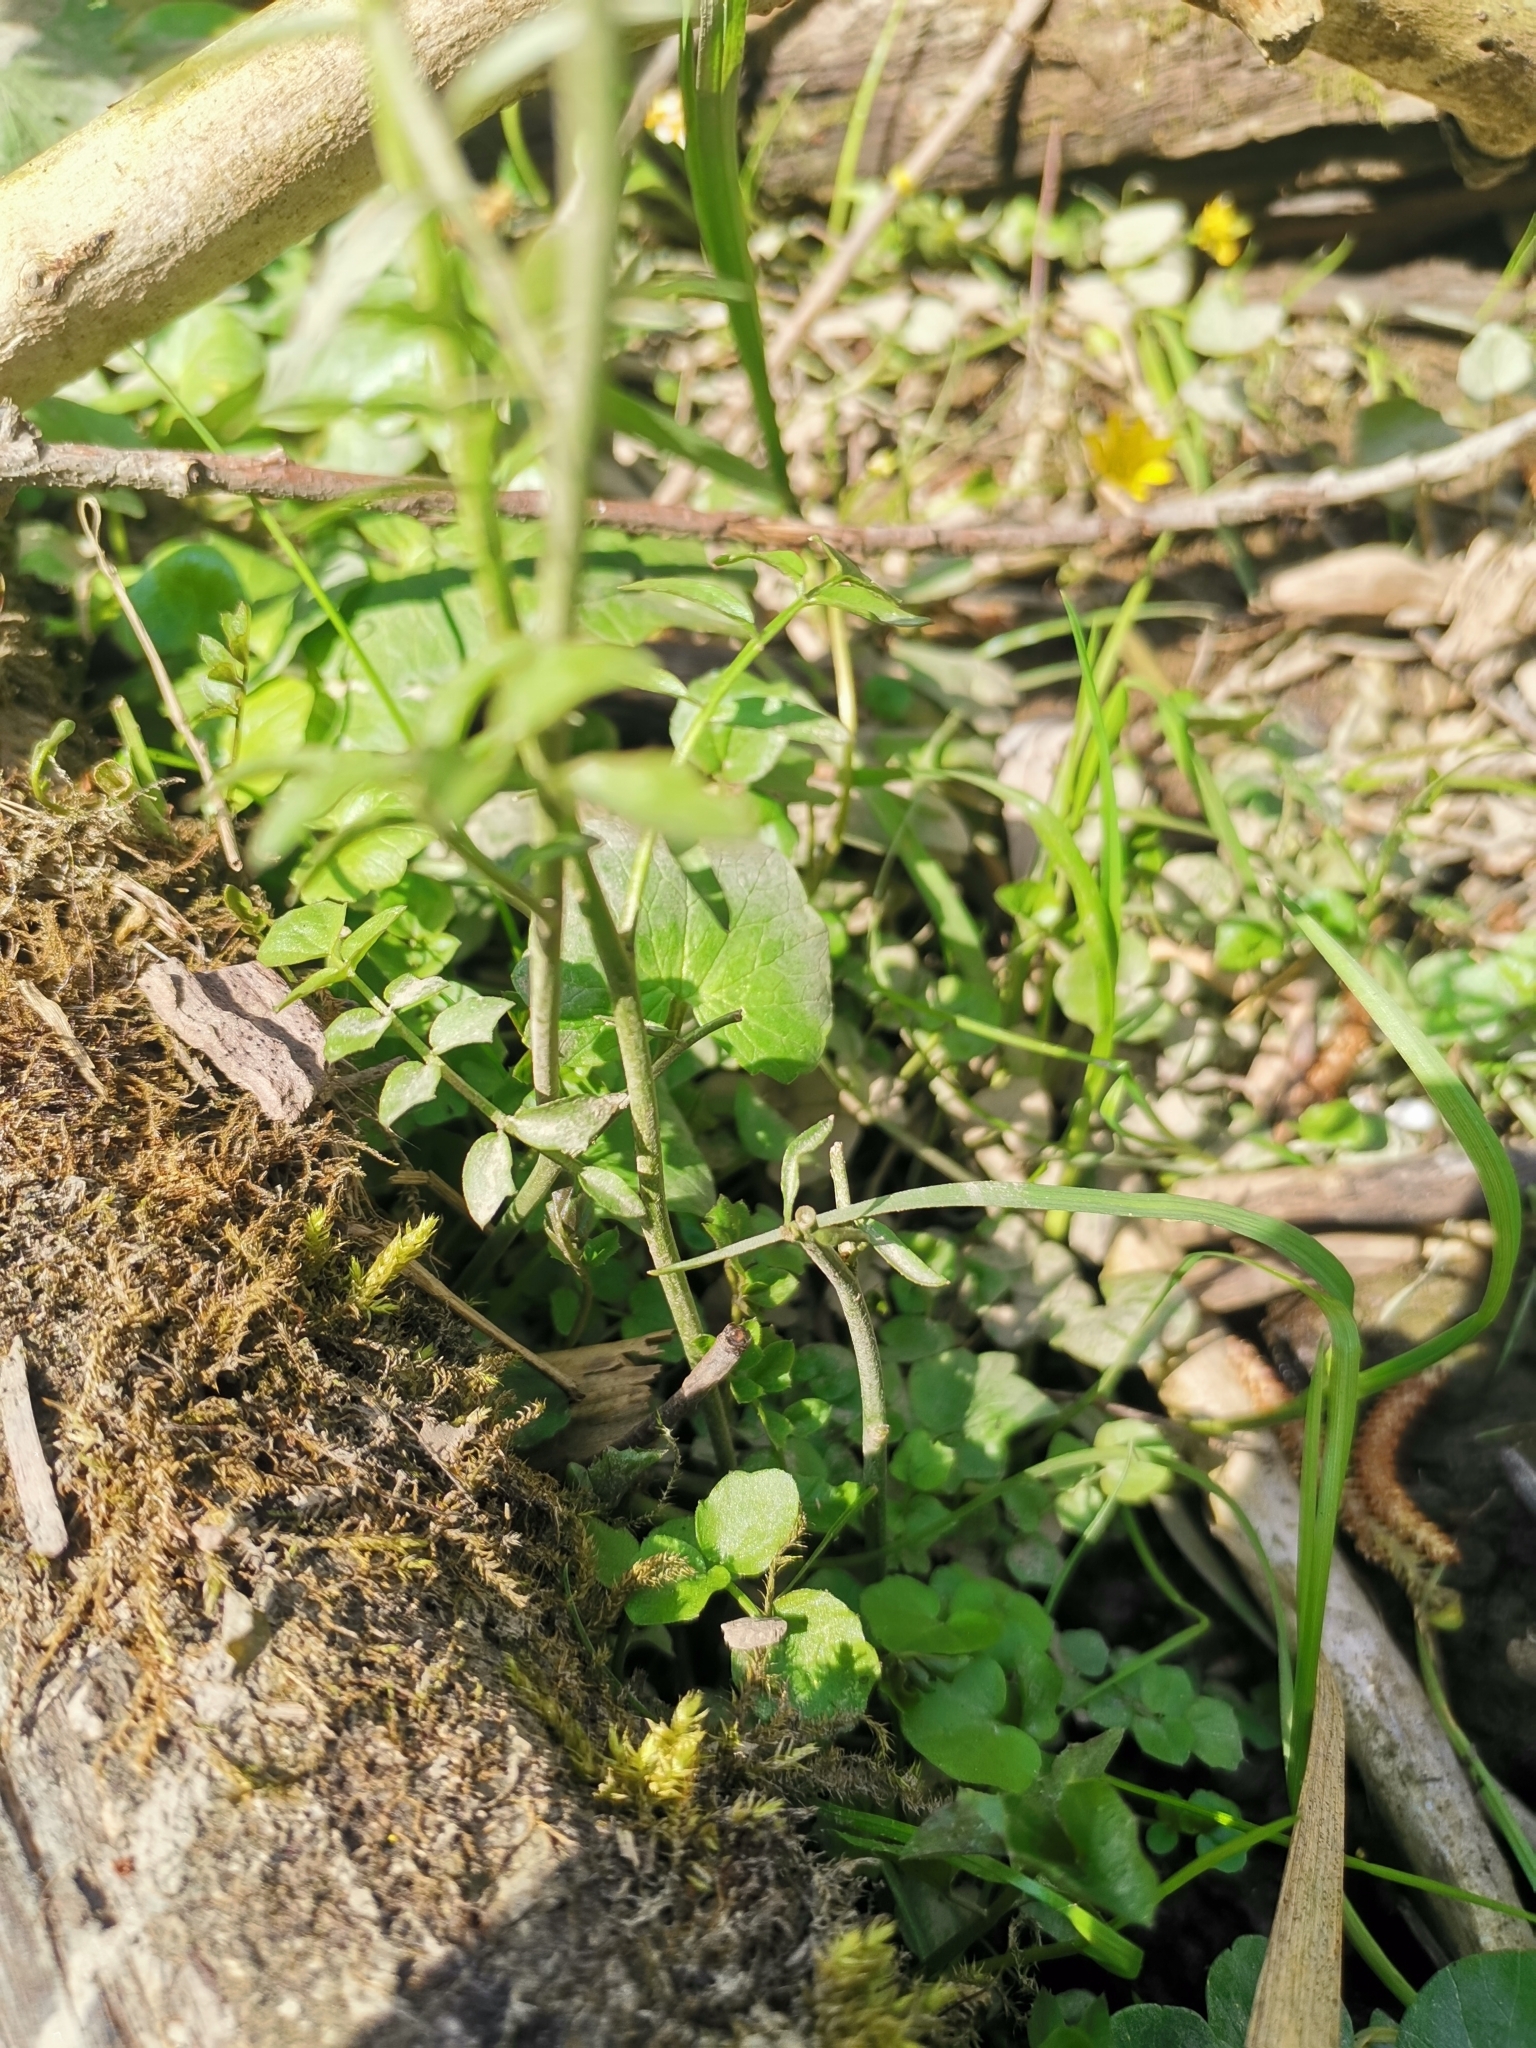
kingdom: Plantae
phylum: Tracheophyta
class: Magnoliopsida
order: Brassicales
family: Brassicaceae
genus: Cardamine
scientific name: Cardamine pratensis
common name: Cuckoo flower
